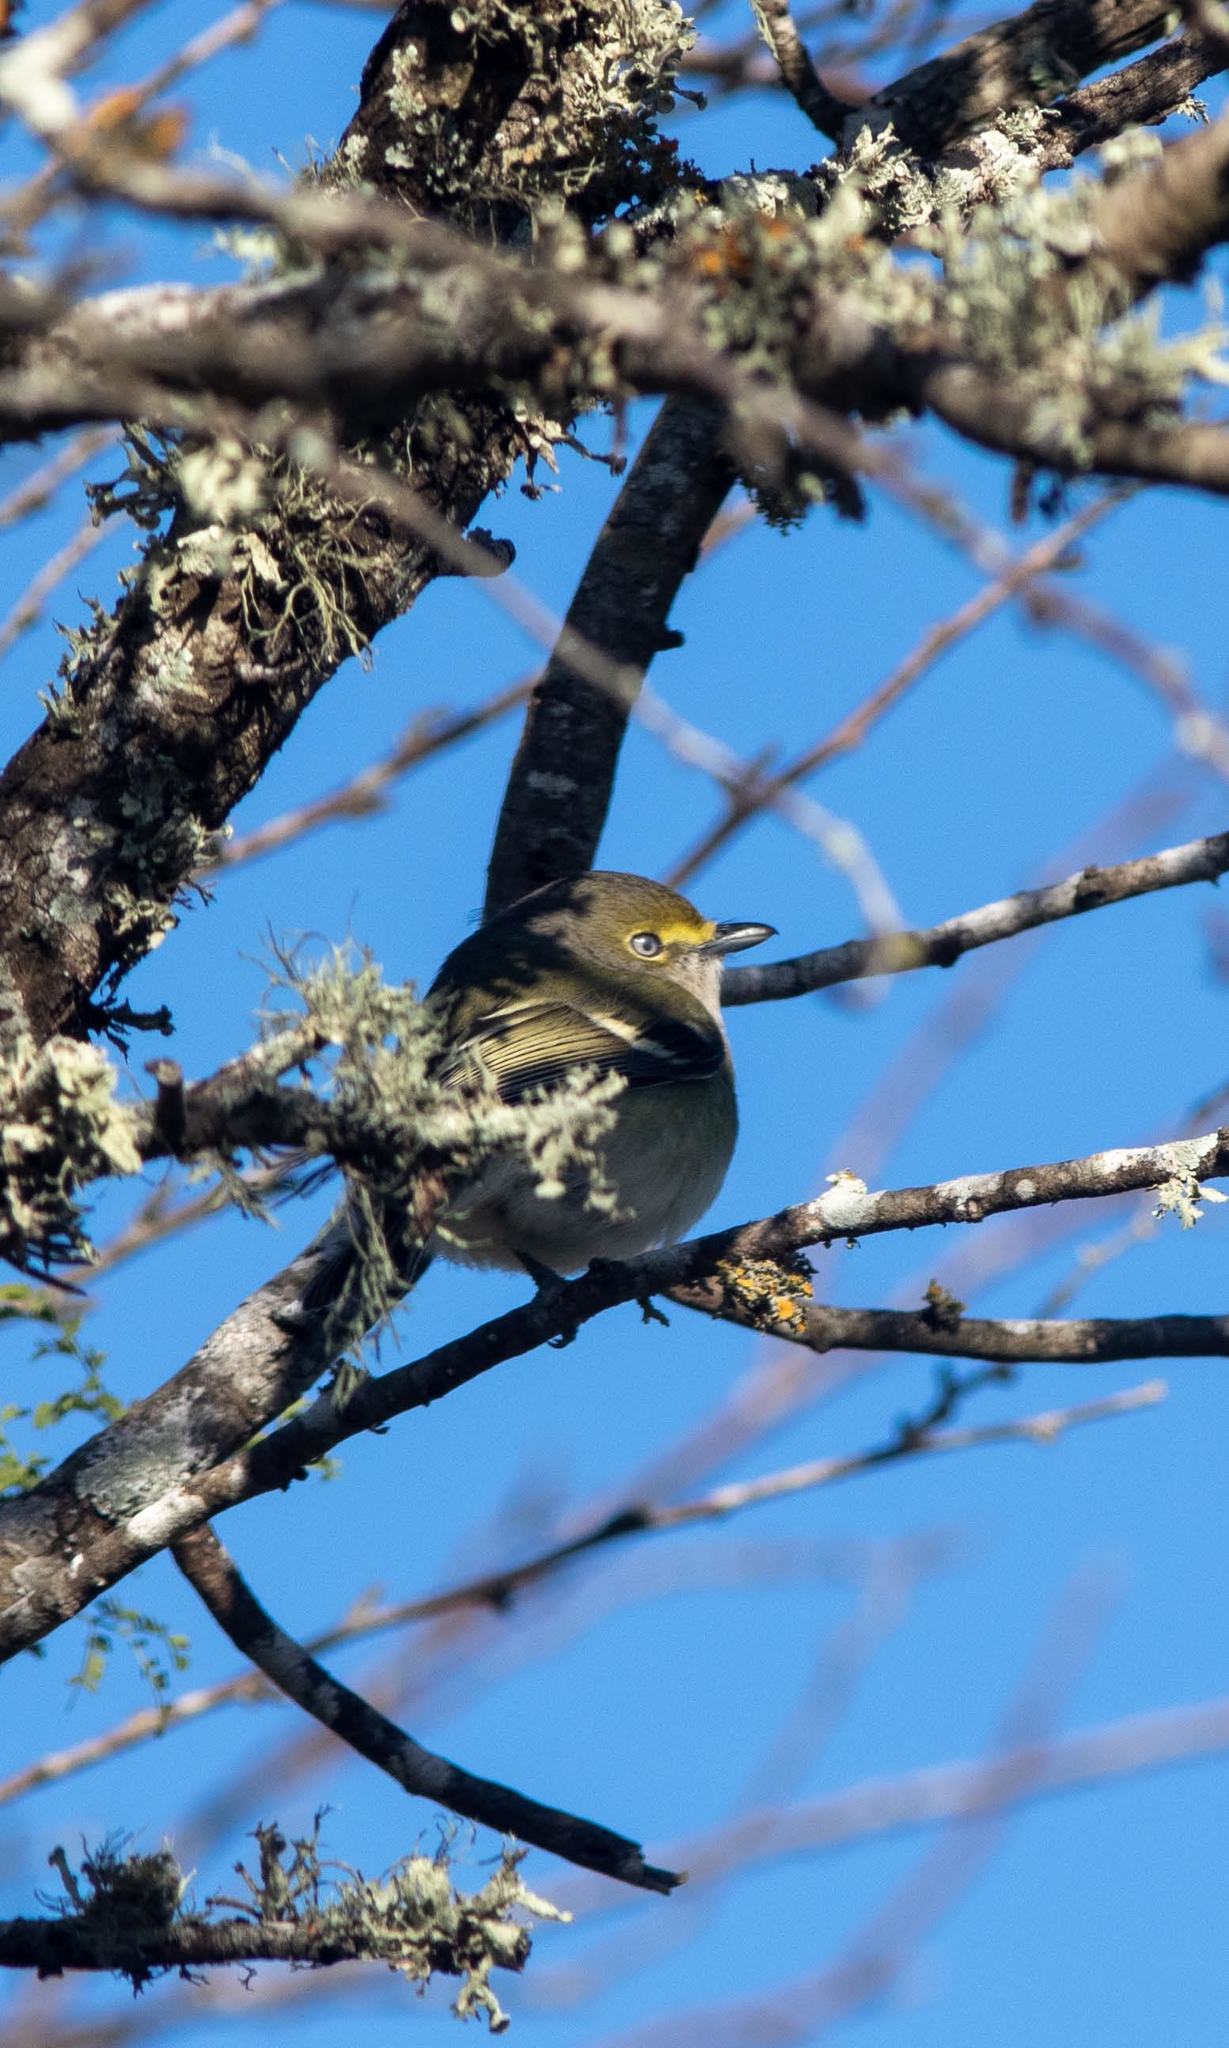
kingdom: Animalia
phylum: Chordata
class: Aves
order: Passeriformes
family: Vireonidae
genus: Vireo
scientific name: Vireo griseus
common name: White-eyed vireo
